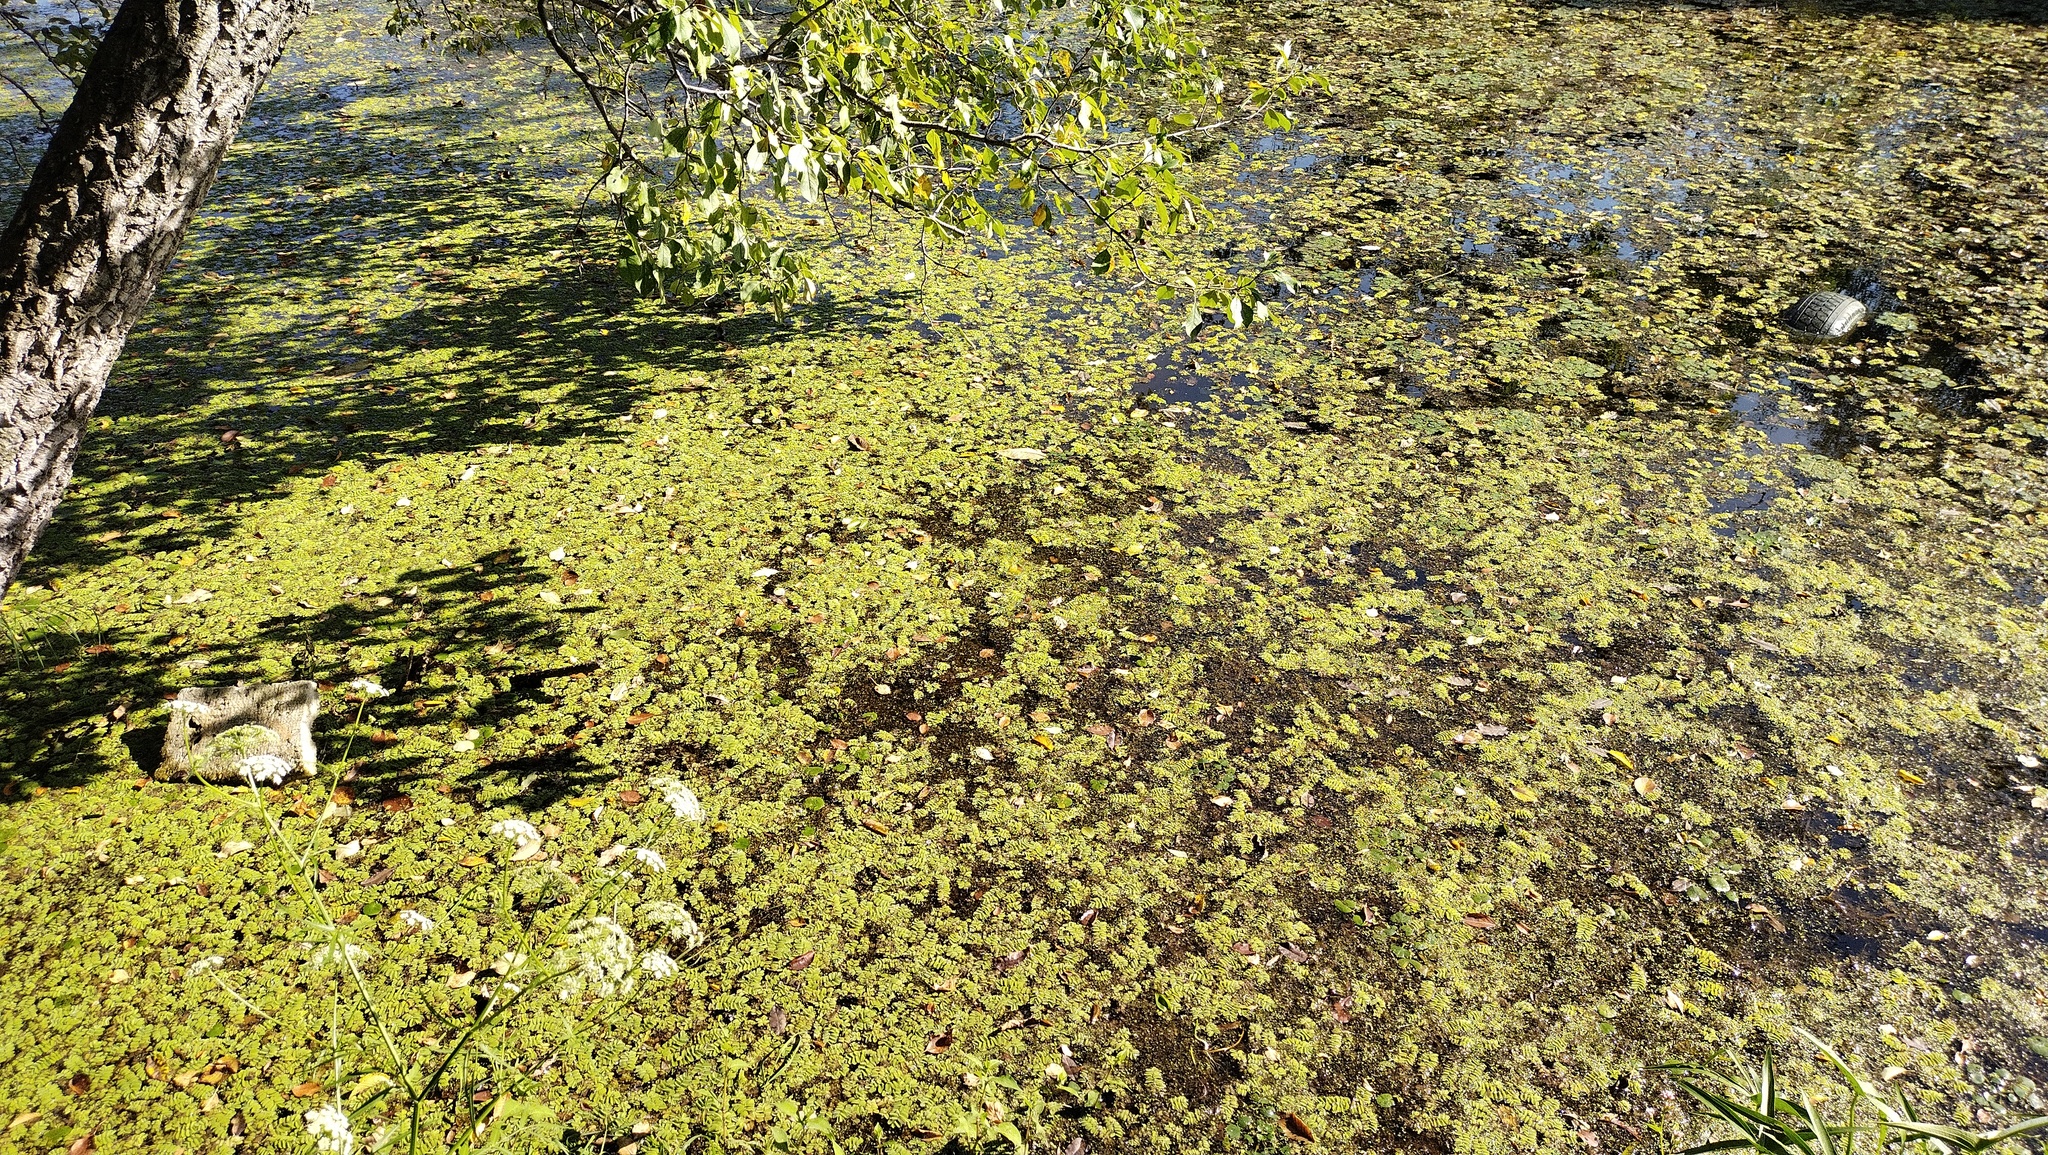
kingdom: Plantae
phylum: Tracheophyta
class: Polypodiopsida
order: Salviniales
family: Salviniaceae
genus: Salvinia
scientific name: Salvinia natans
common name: Floating fern
